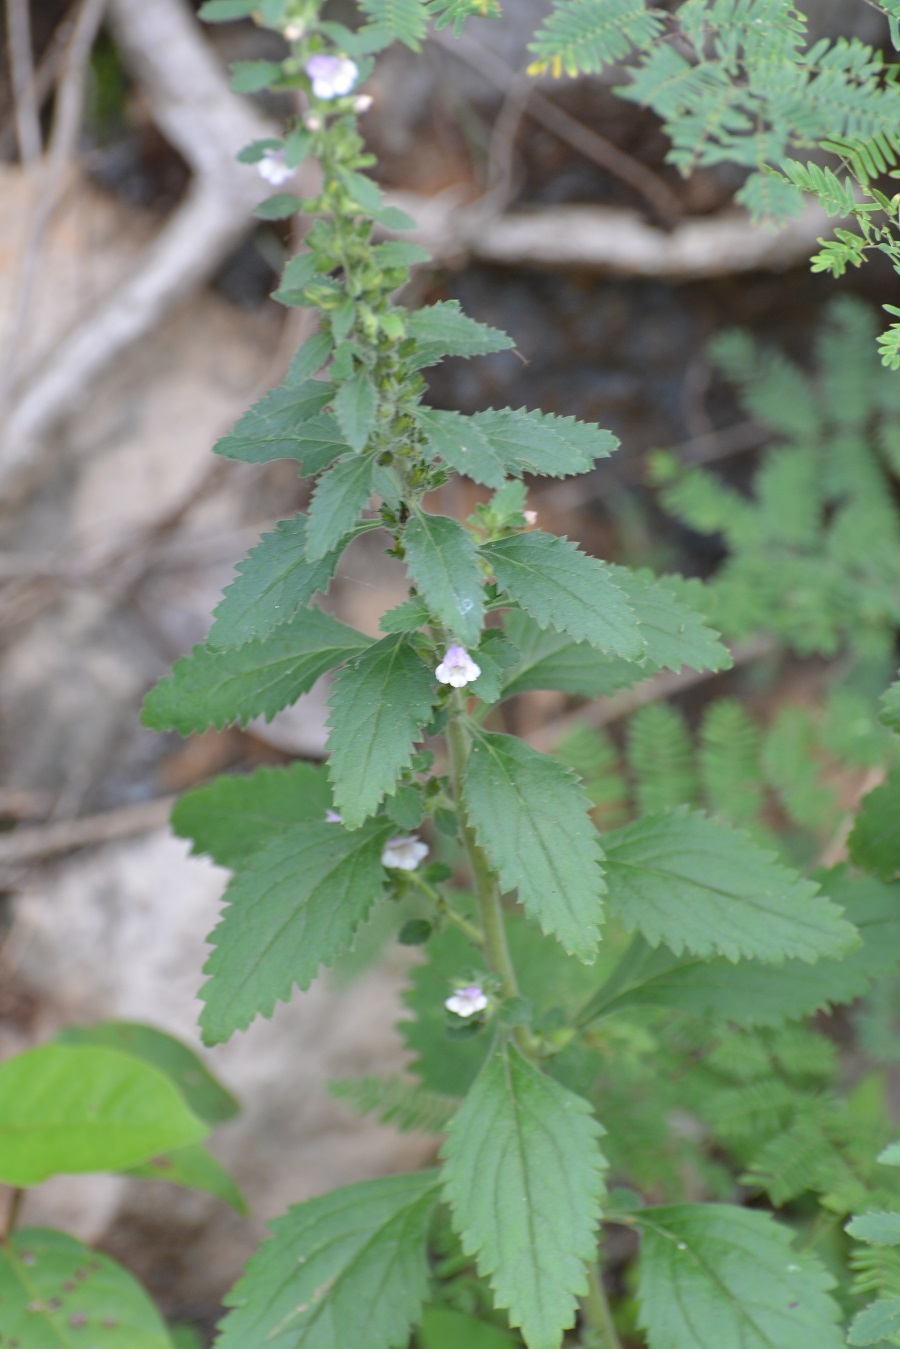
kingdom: Plantae
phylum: Tracheophyta
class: Magnoliopsida
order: Lamiales
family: Scrophulariaceae
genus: Capraria
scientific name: Capraria frutescens
